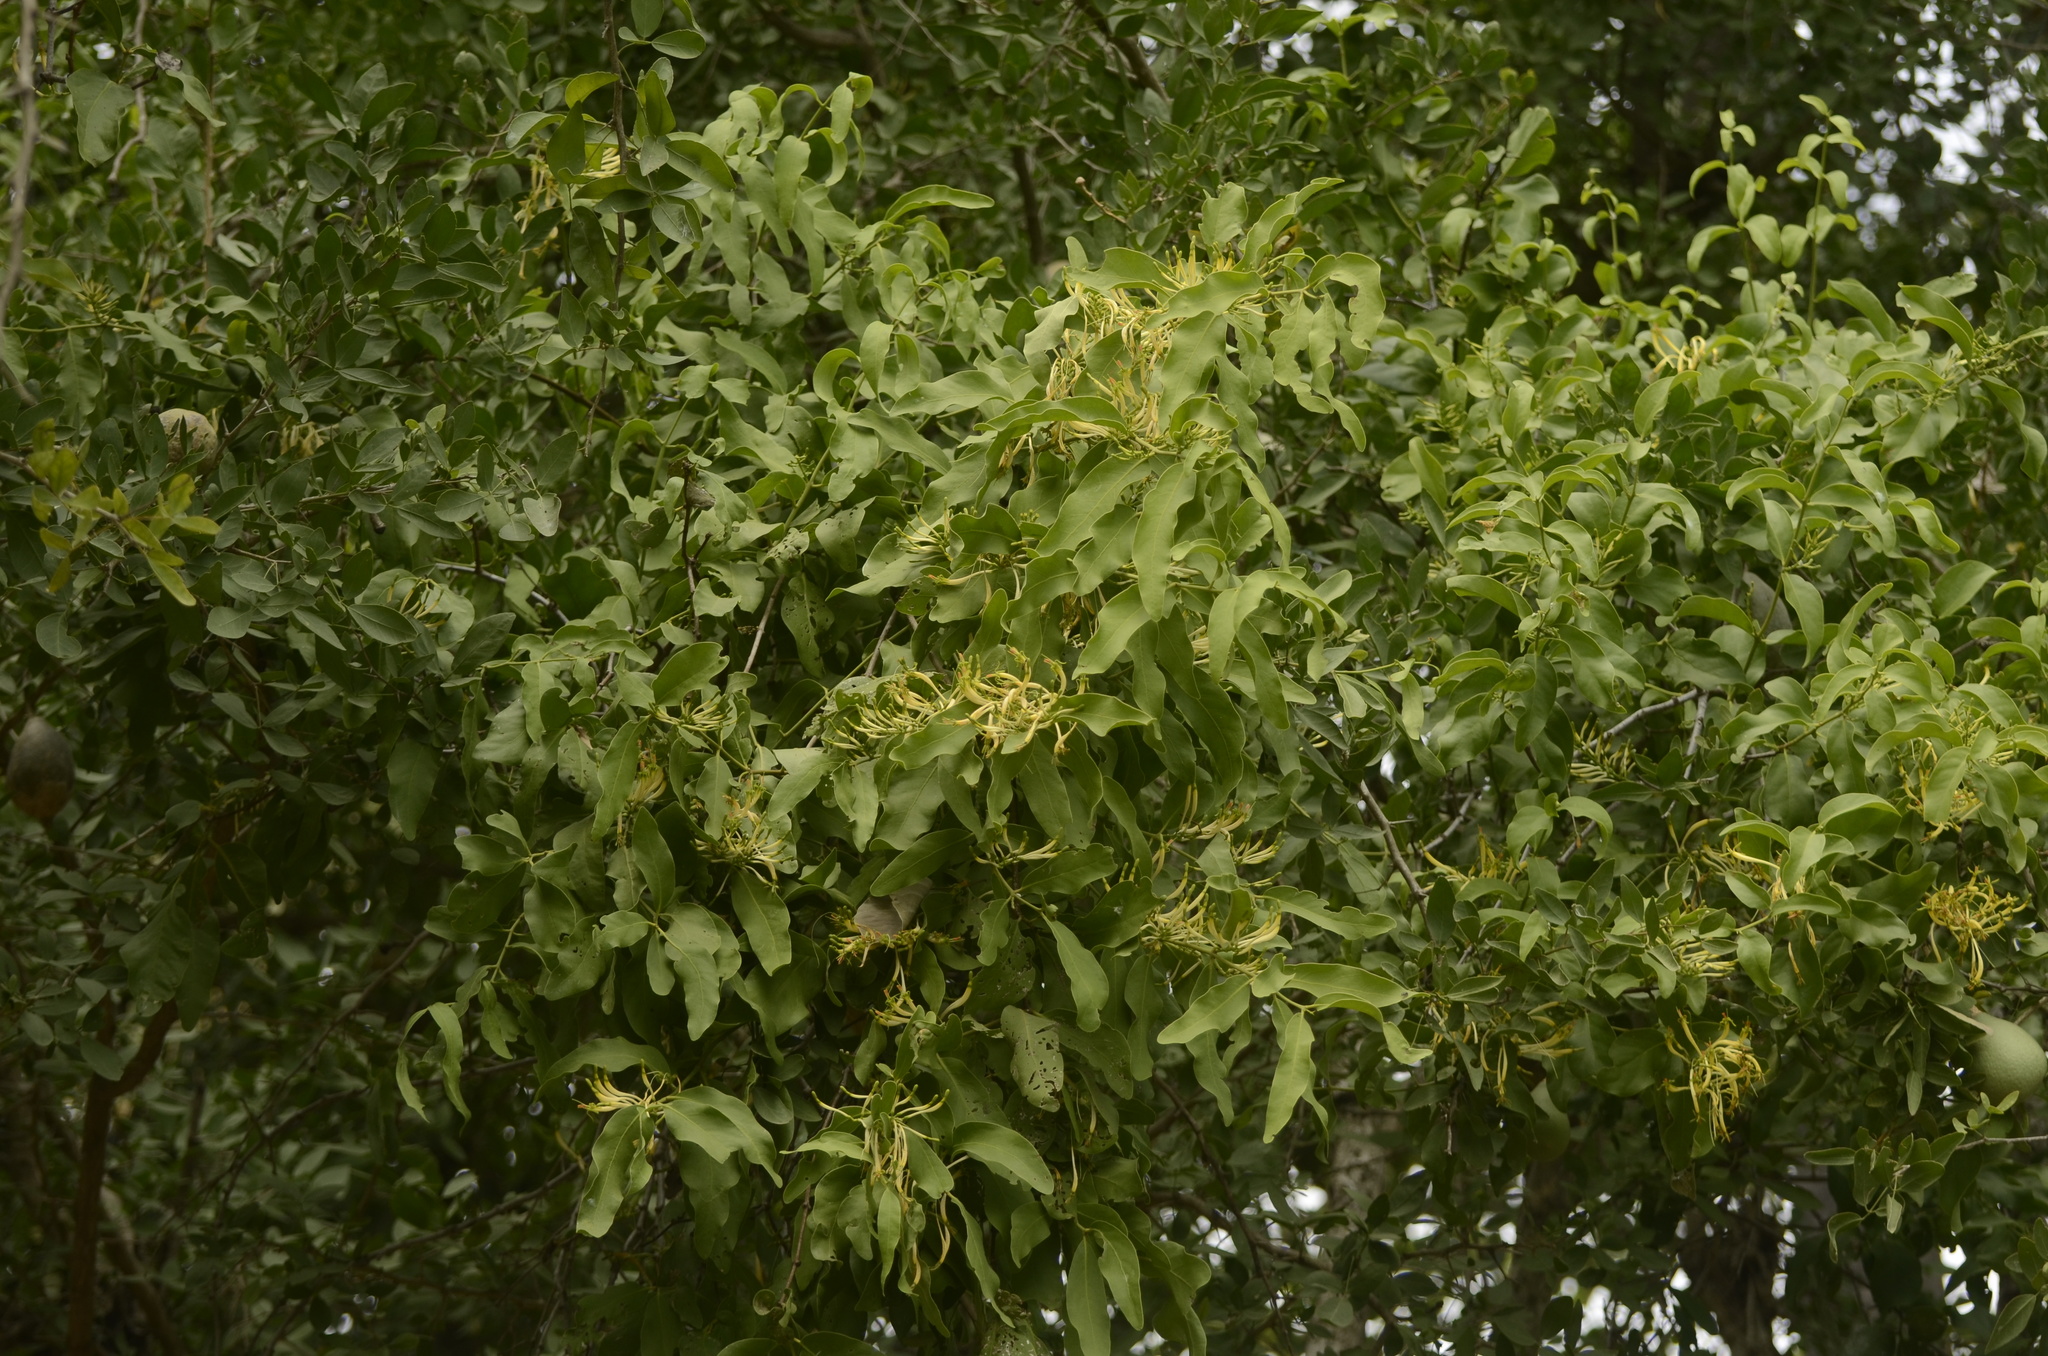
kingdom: Plantae
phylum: Tracheophyta
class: Magnoliopsida
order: Santalales
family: Loranthaceae
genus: Dendrophthoe
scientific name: Dendrophthoe falcata
